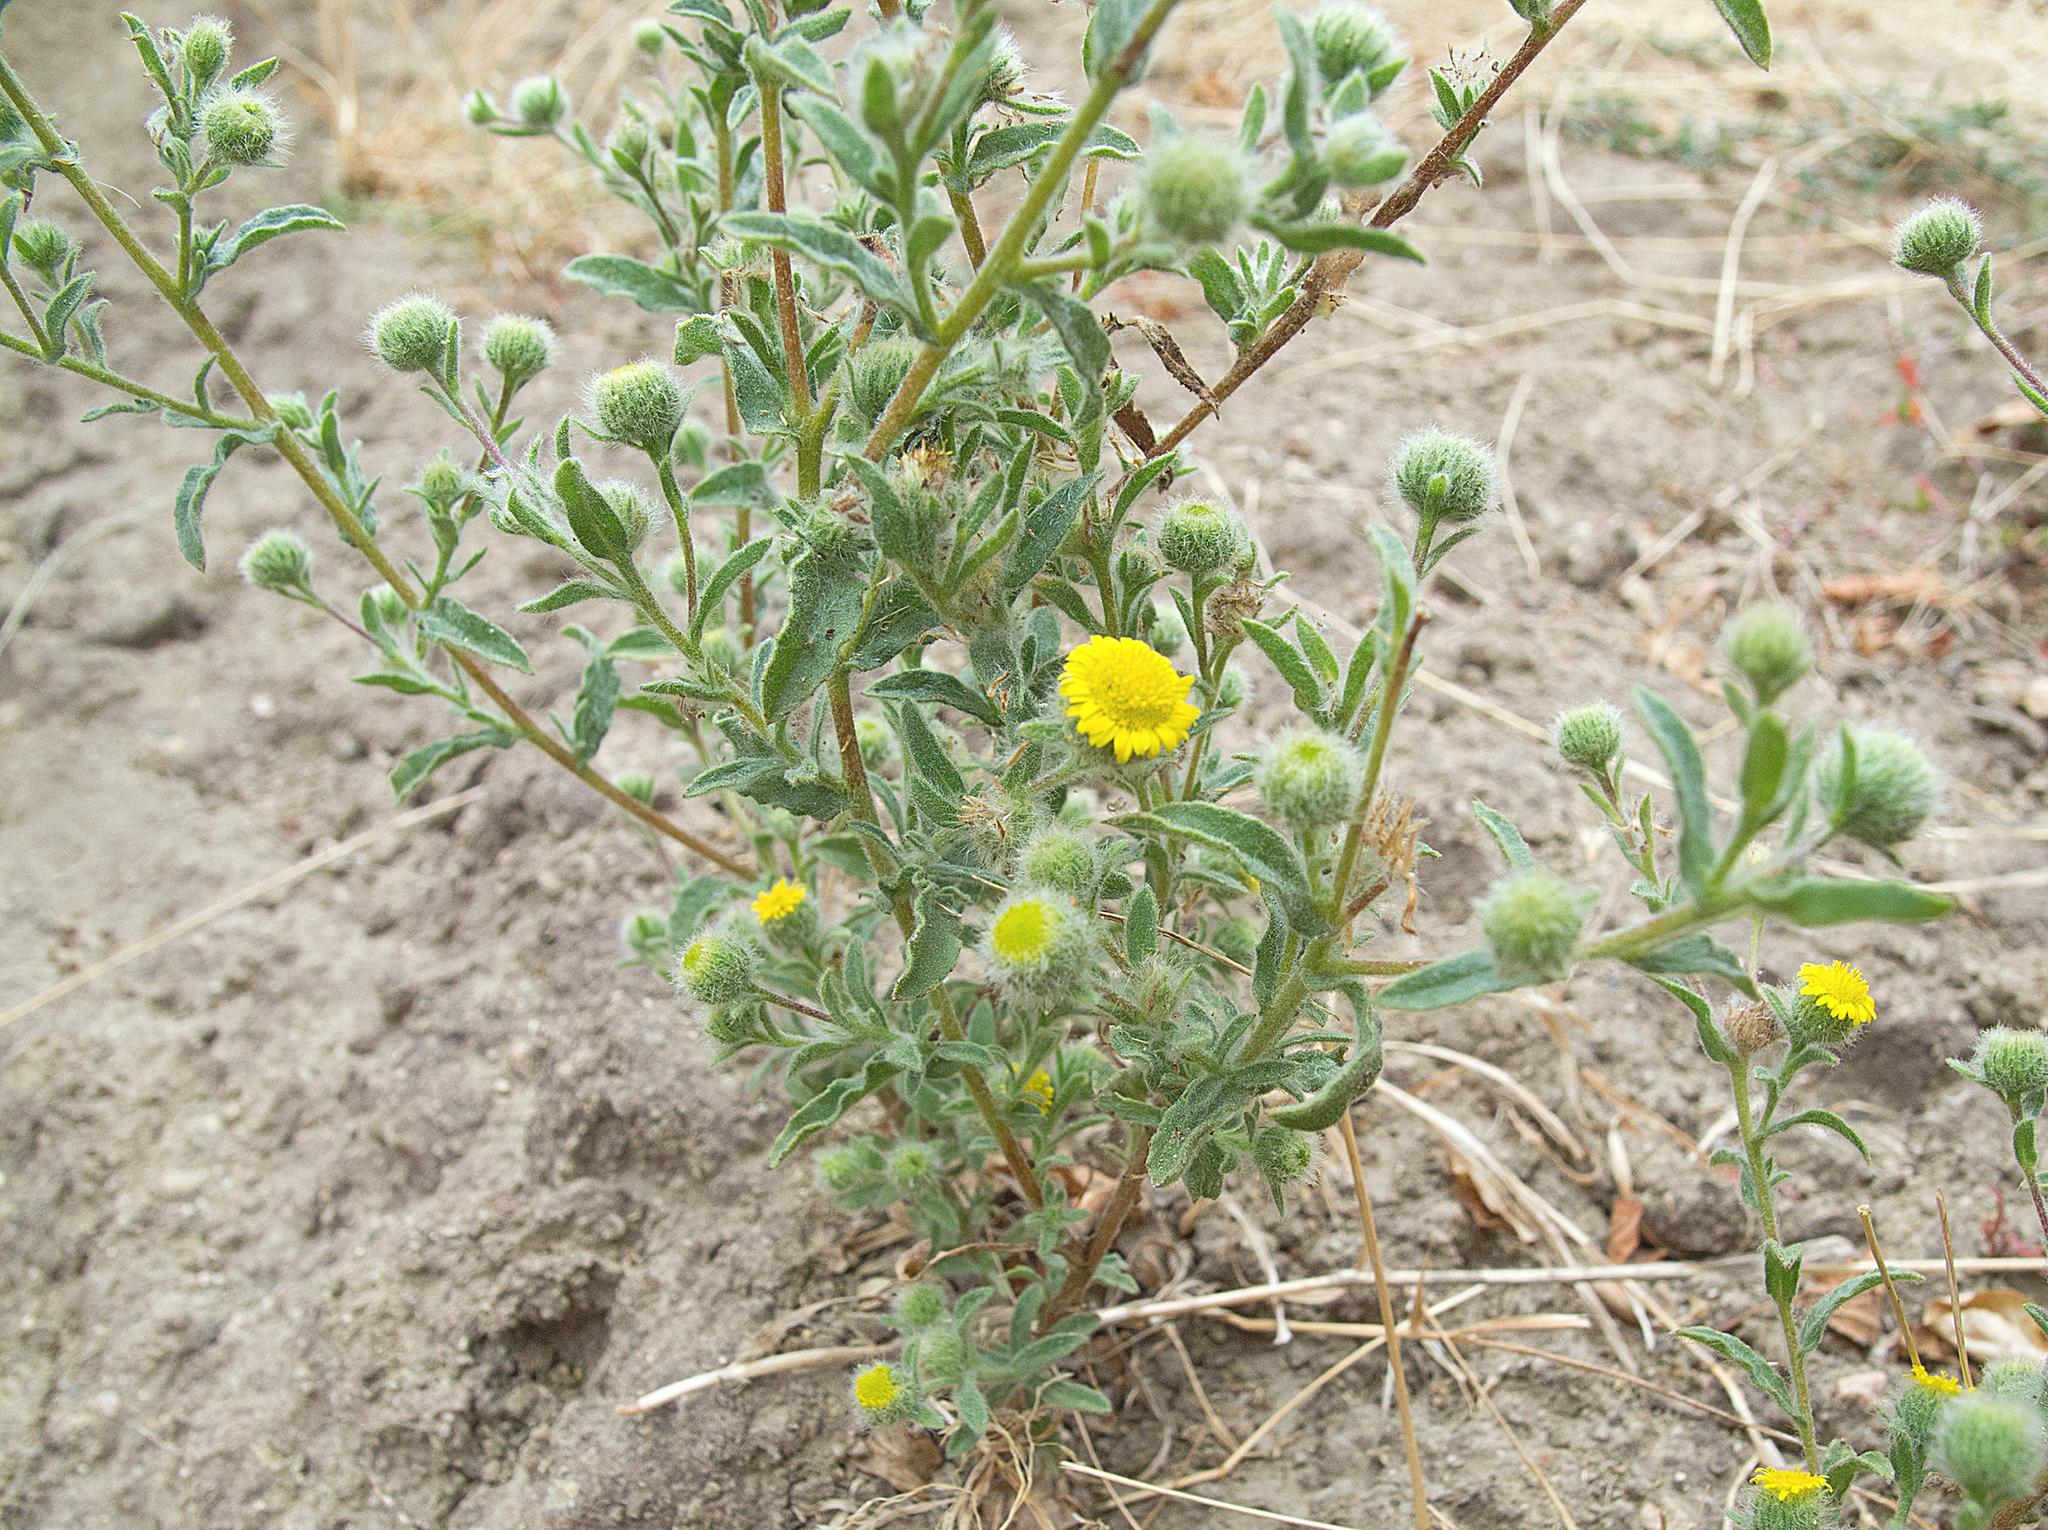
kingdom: Plantae
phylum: Tracheophyta
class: Magnoliopsida
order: Asterales
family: Asteraceae
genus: Pulicaria
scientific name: Pulicaria vulgaris
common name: Small fleabane
